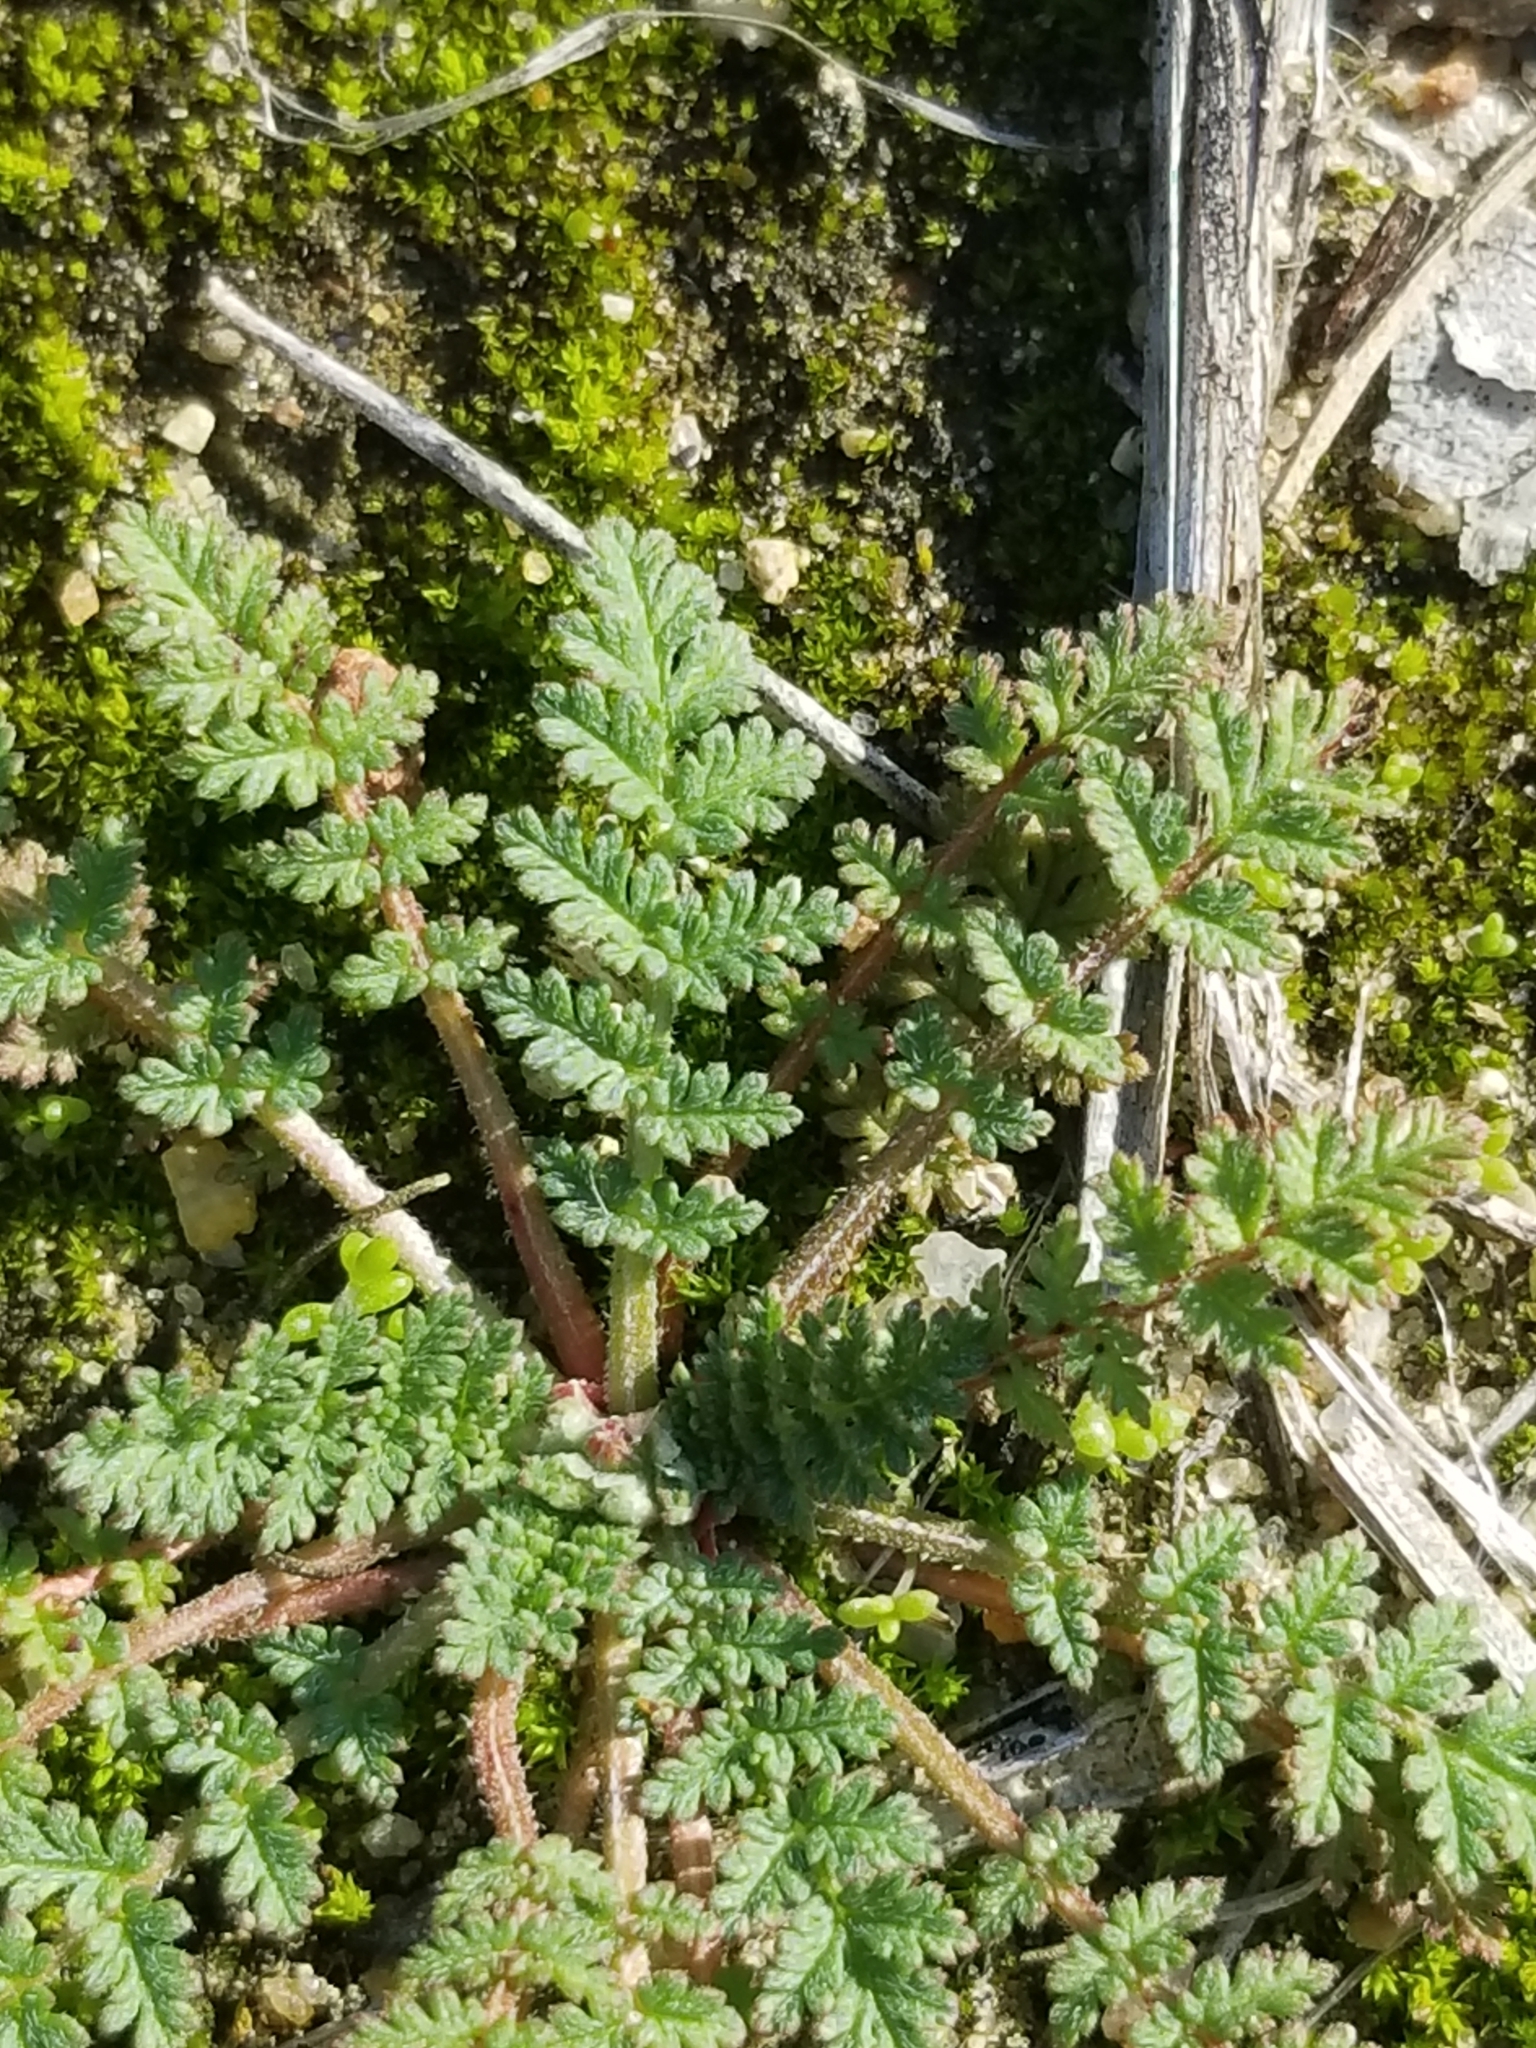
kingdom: Plantae
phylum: Tracheophyta
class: Magnoliopsida
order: Geraniales
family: Geraniaceae
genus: Erodium
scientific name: Erodium cicutarium
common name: Common stork's-bill
